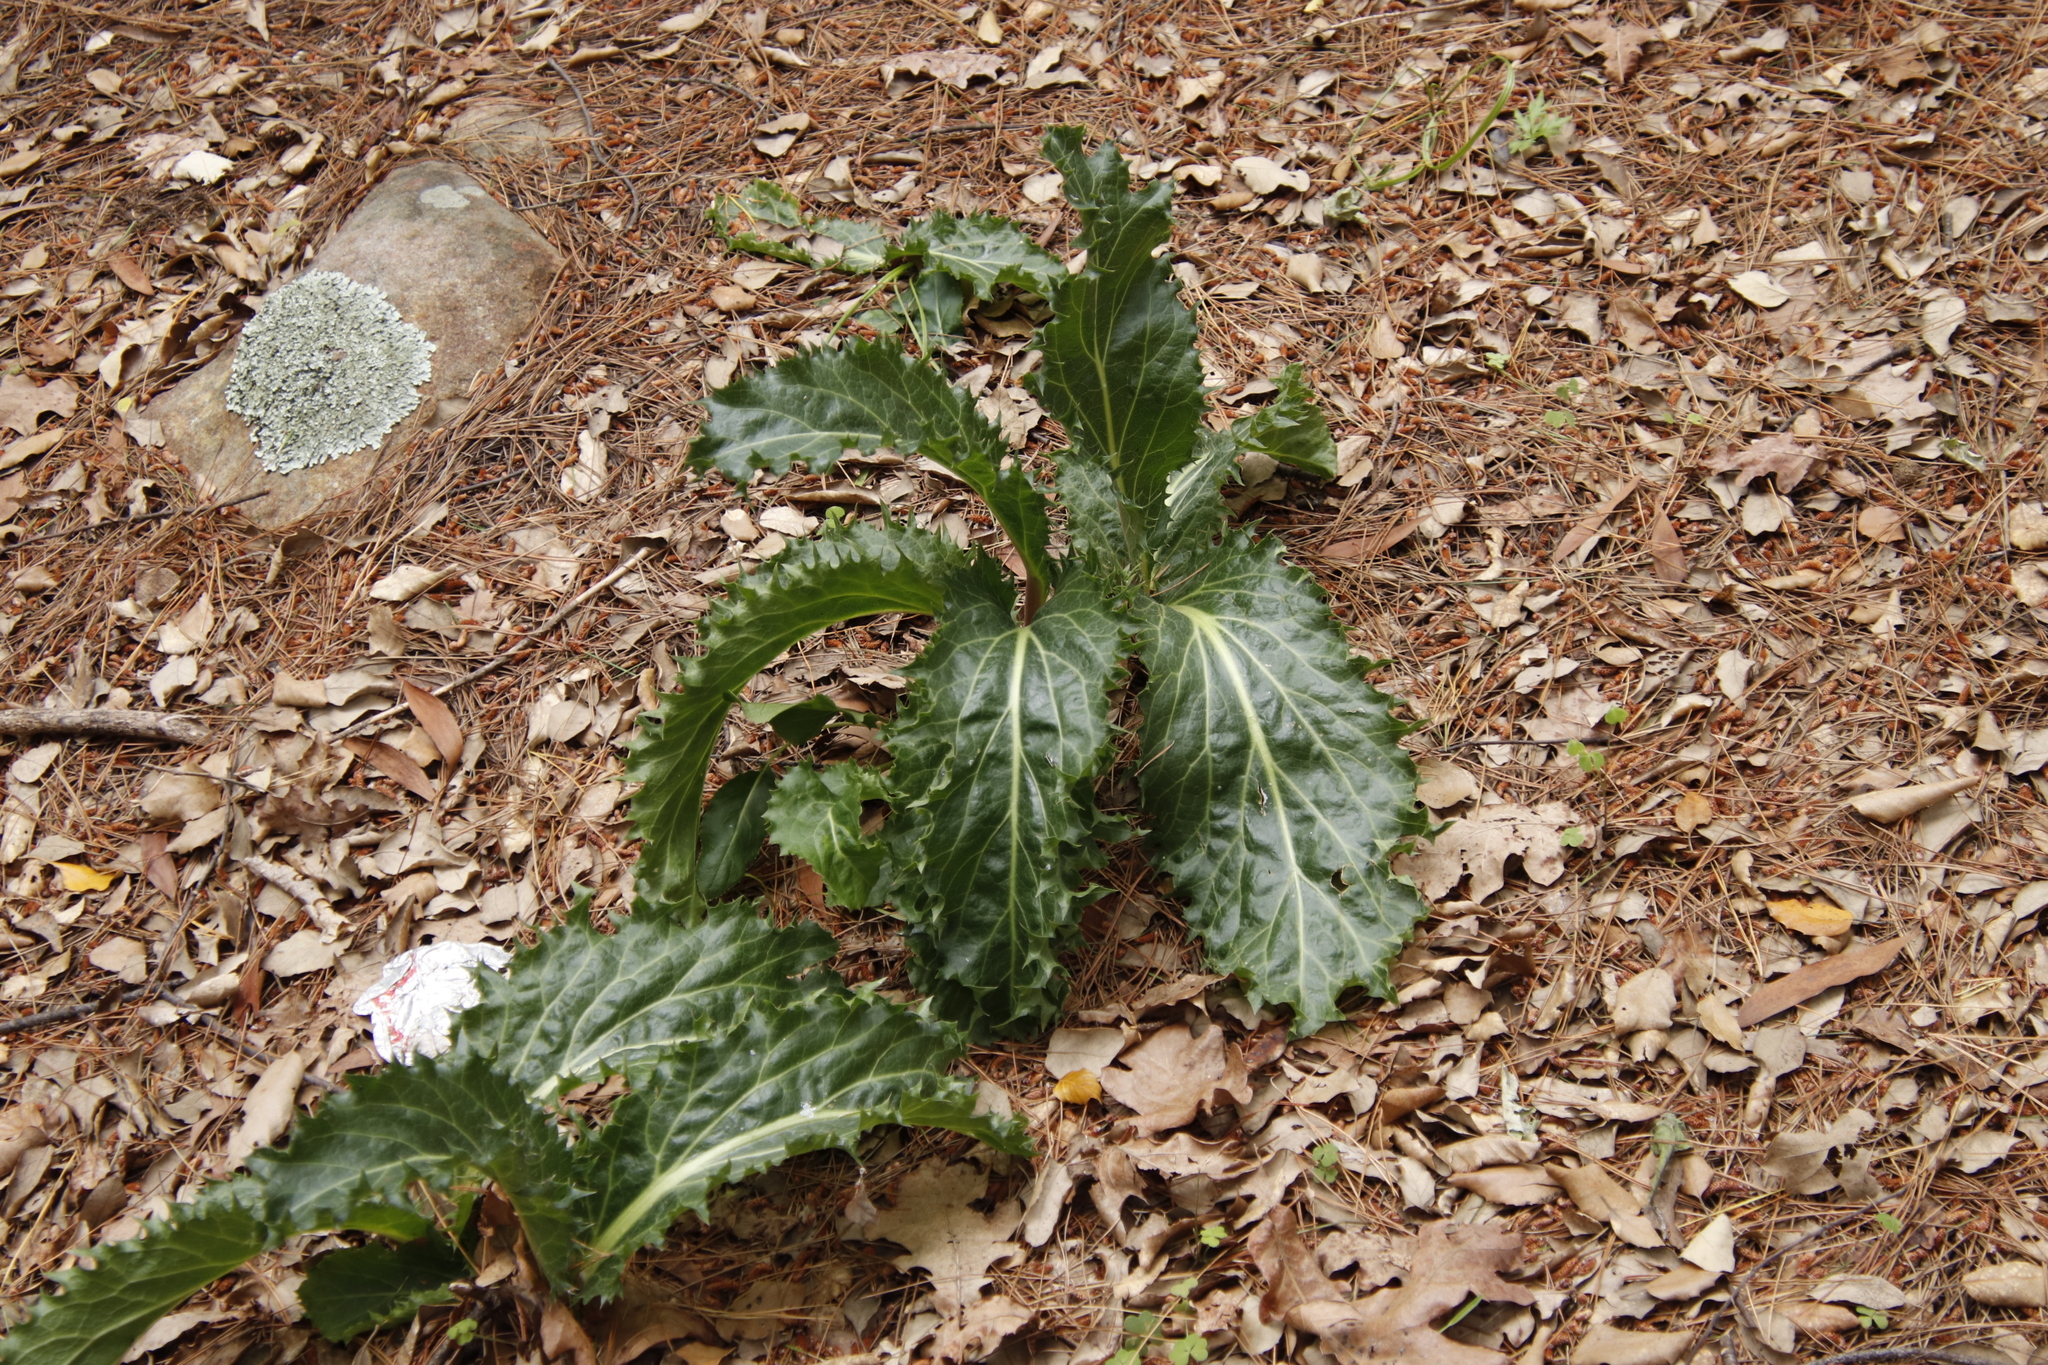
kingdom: Plantae
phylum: Tracheophyta
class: Magnoliopsida
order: Apiales
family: Apiaceae
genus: Lichtensteinia
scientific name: Lichtensteinia lacera
